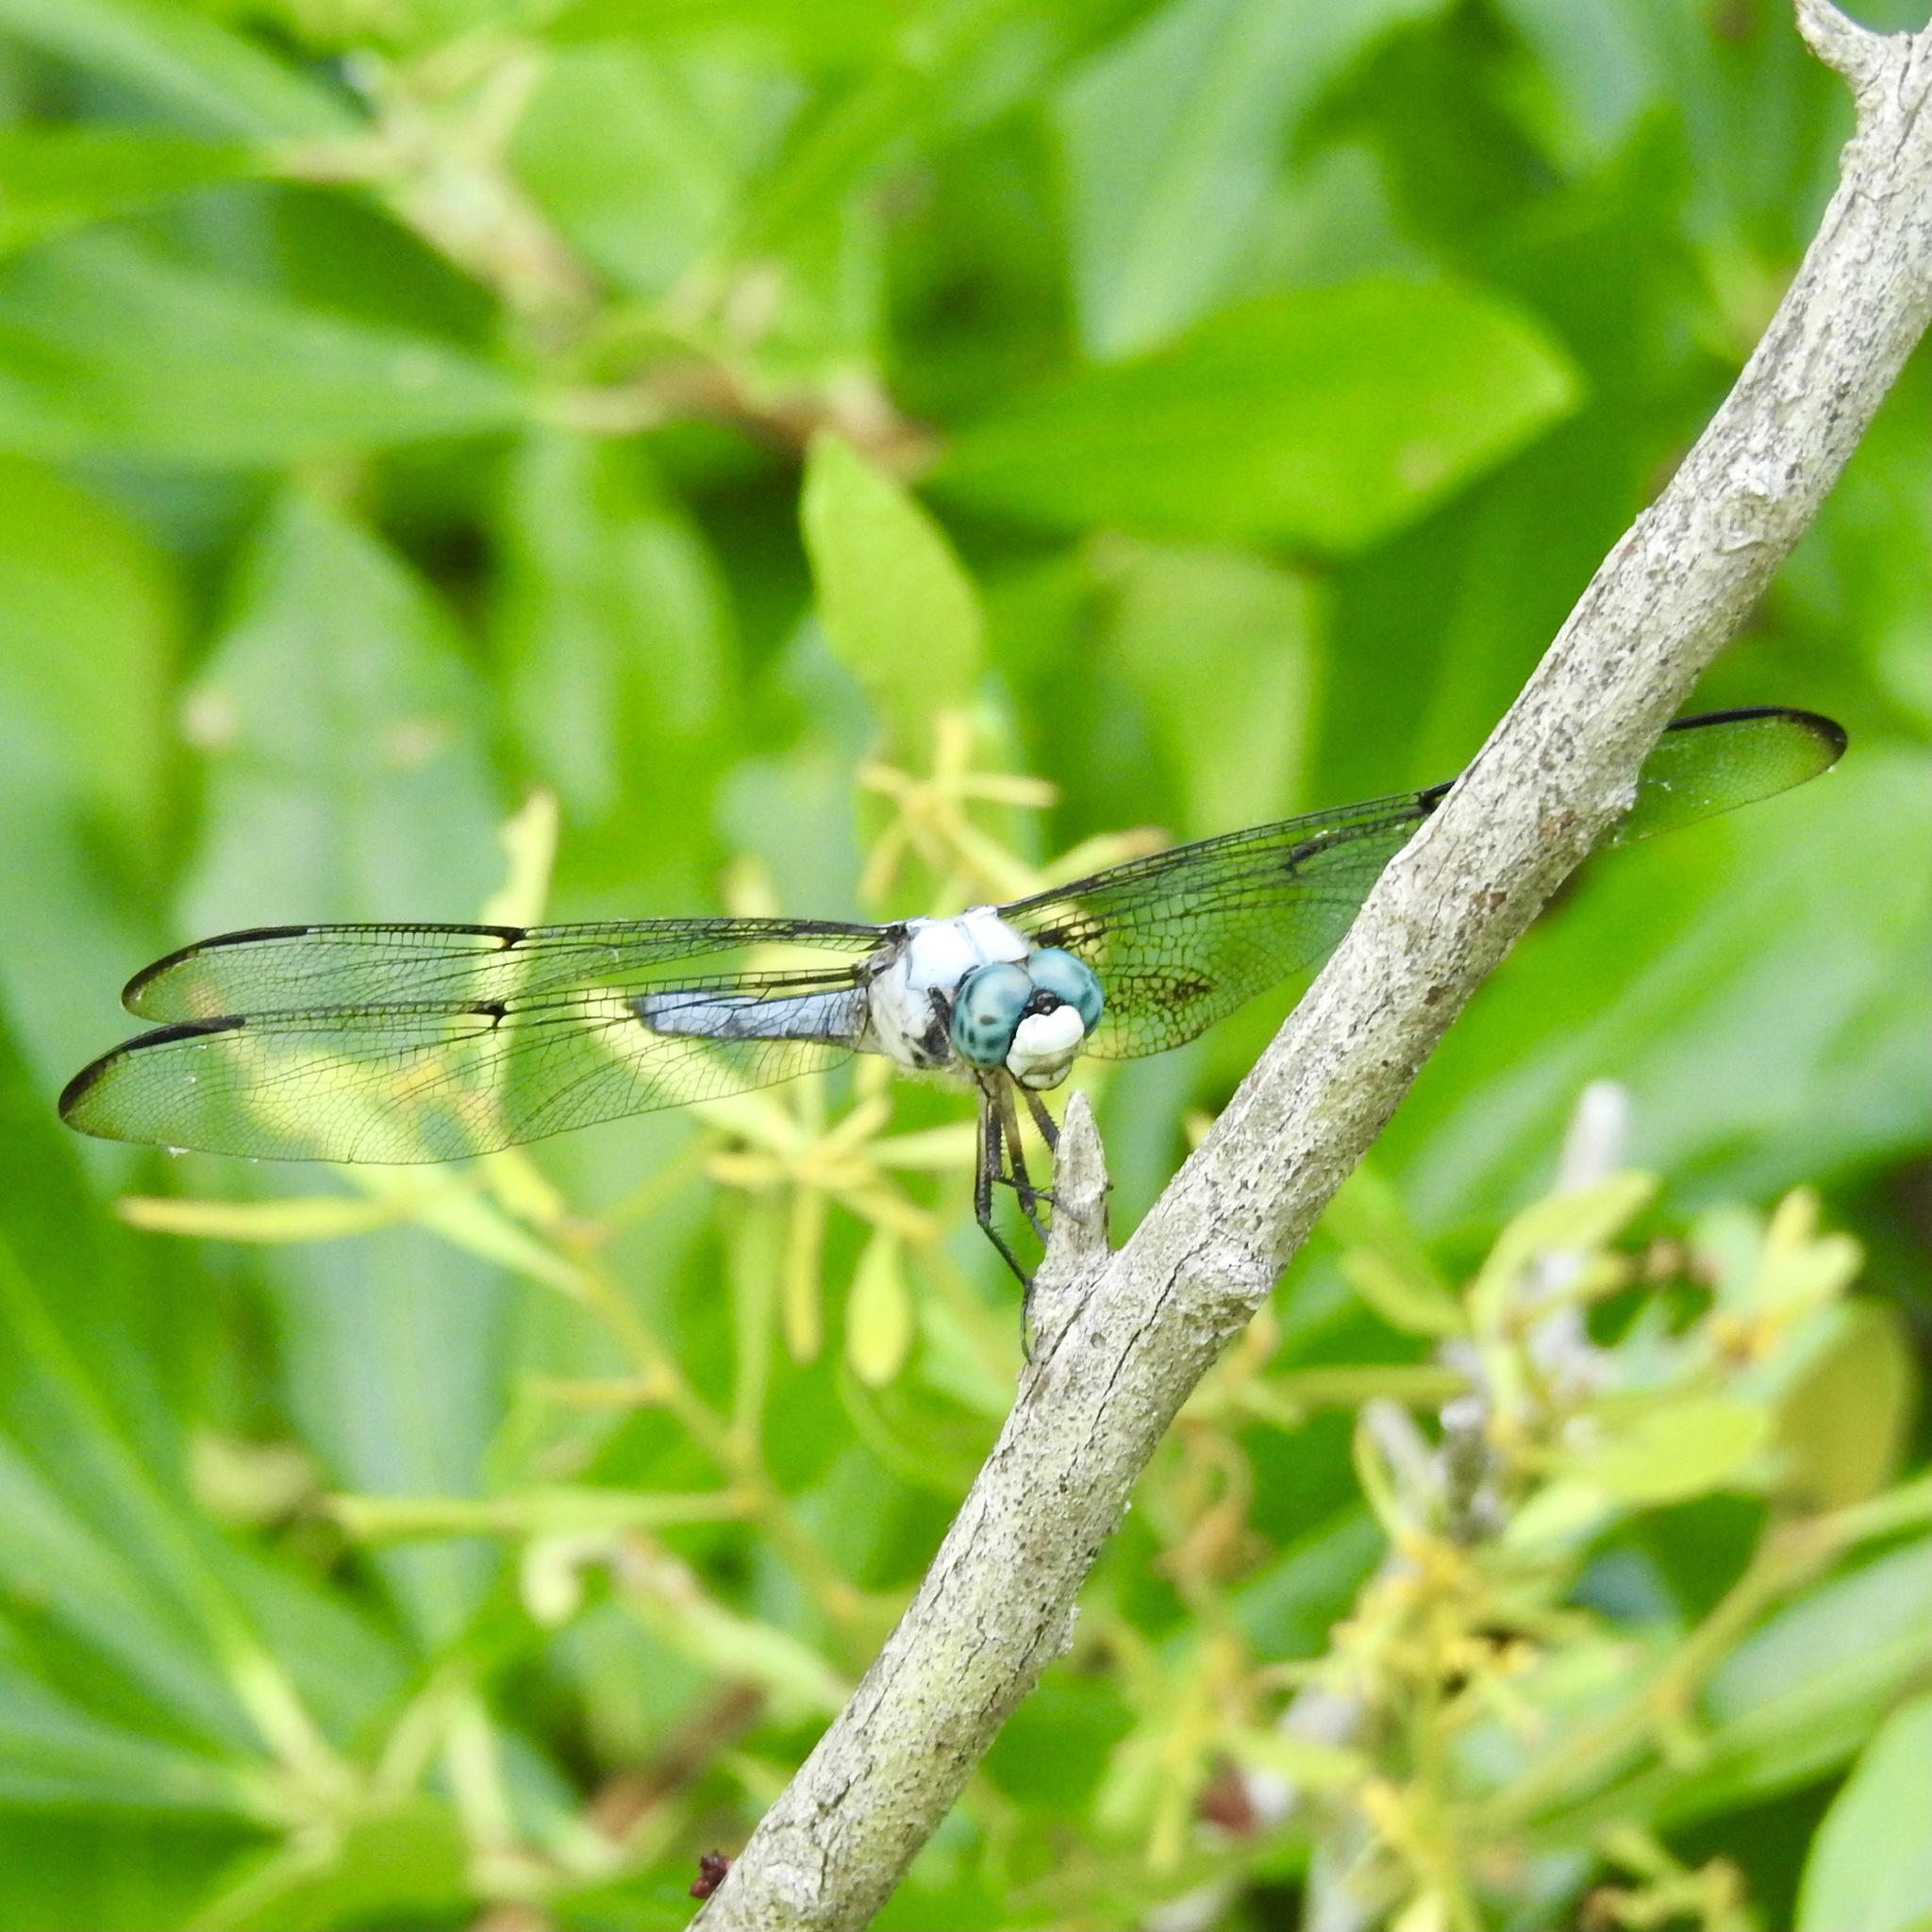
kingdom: Animalia
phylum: Arthropoda
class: Insecta
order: Odonata
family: Libellulidae
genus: Libellula
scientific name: Libellula vibrans
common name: Great blue skimmer
